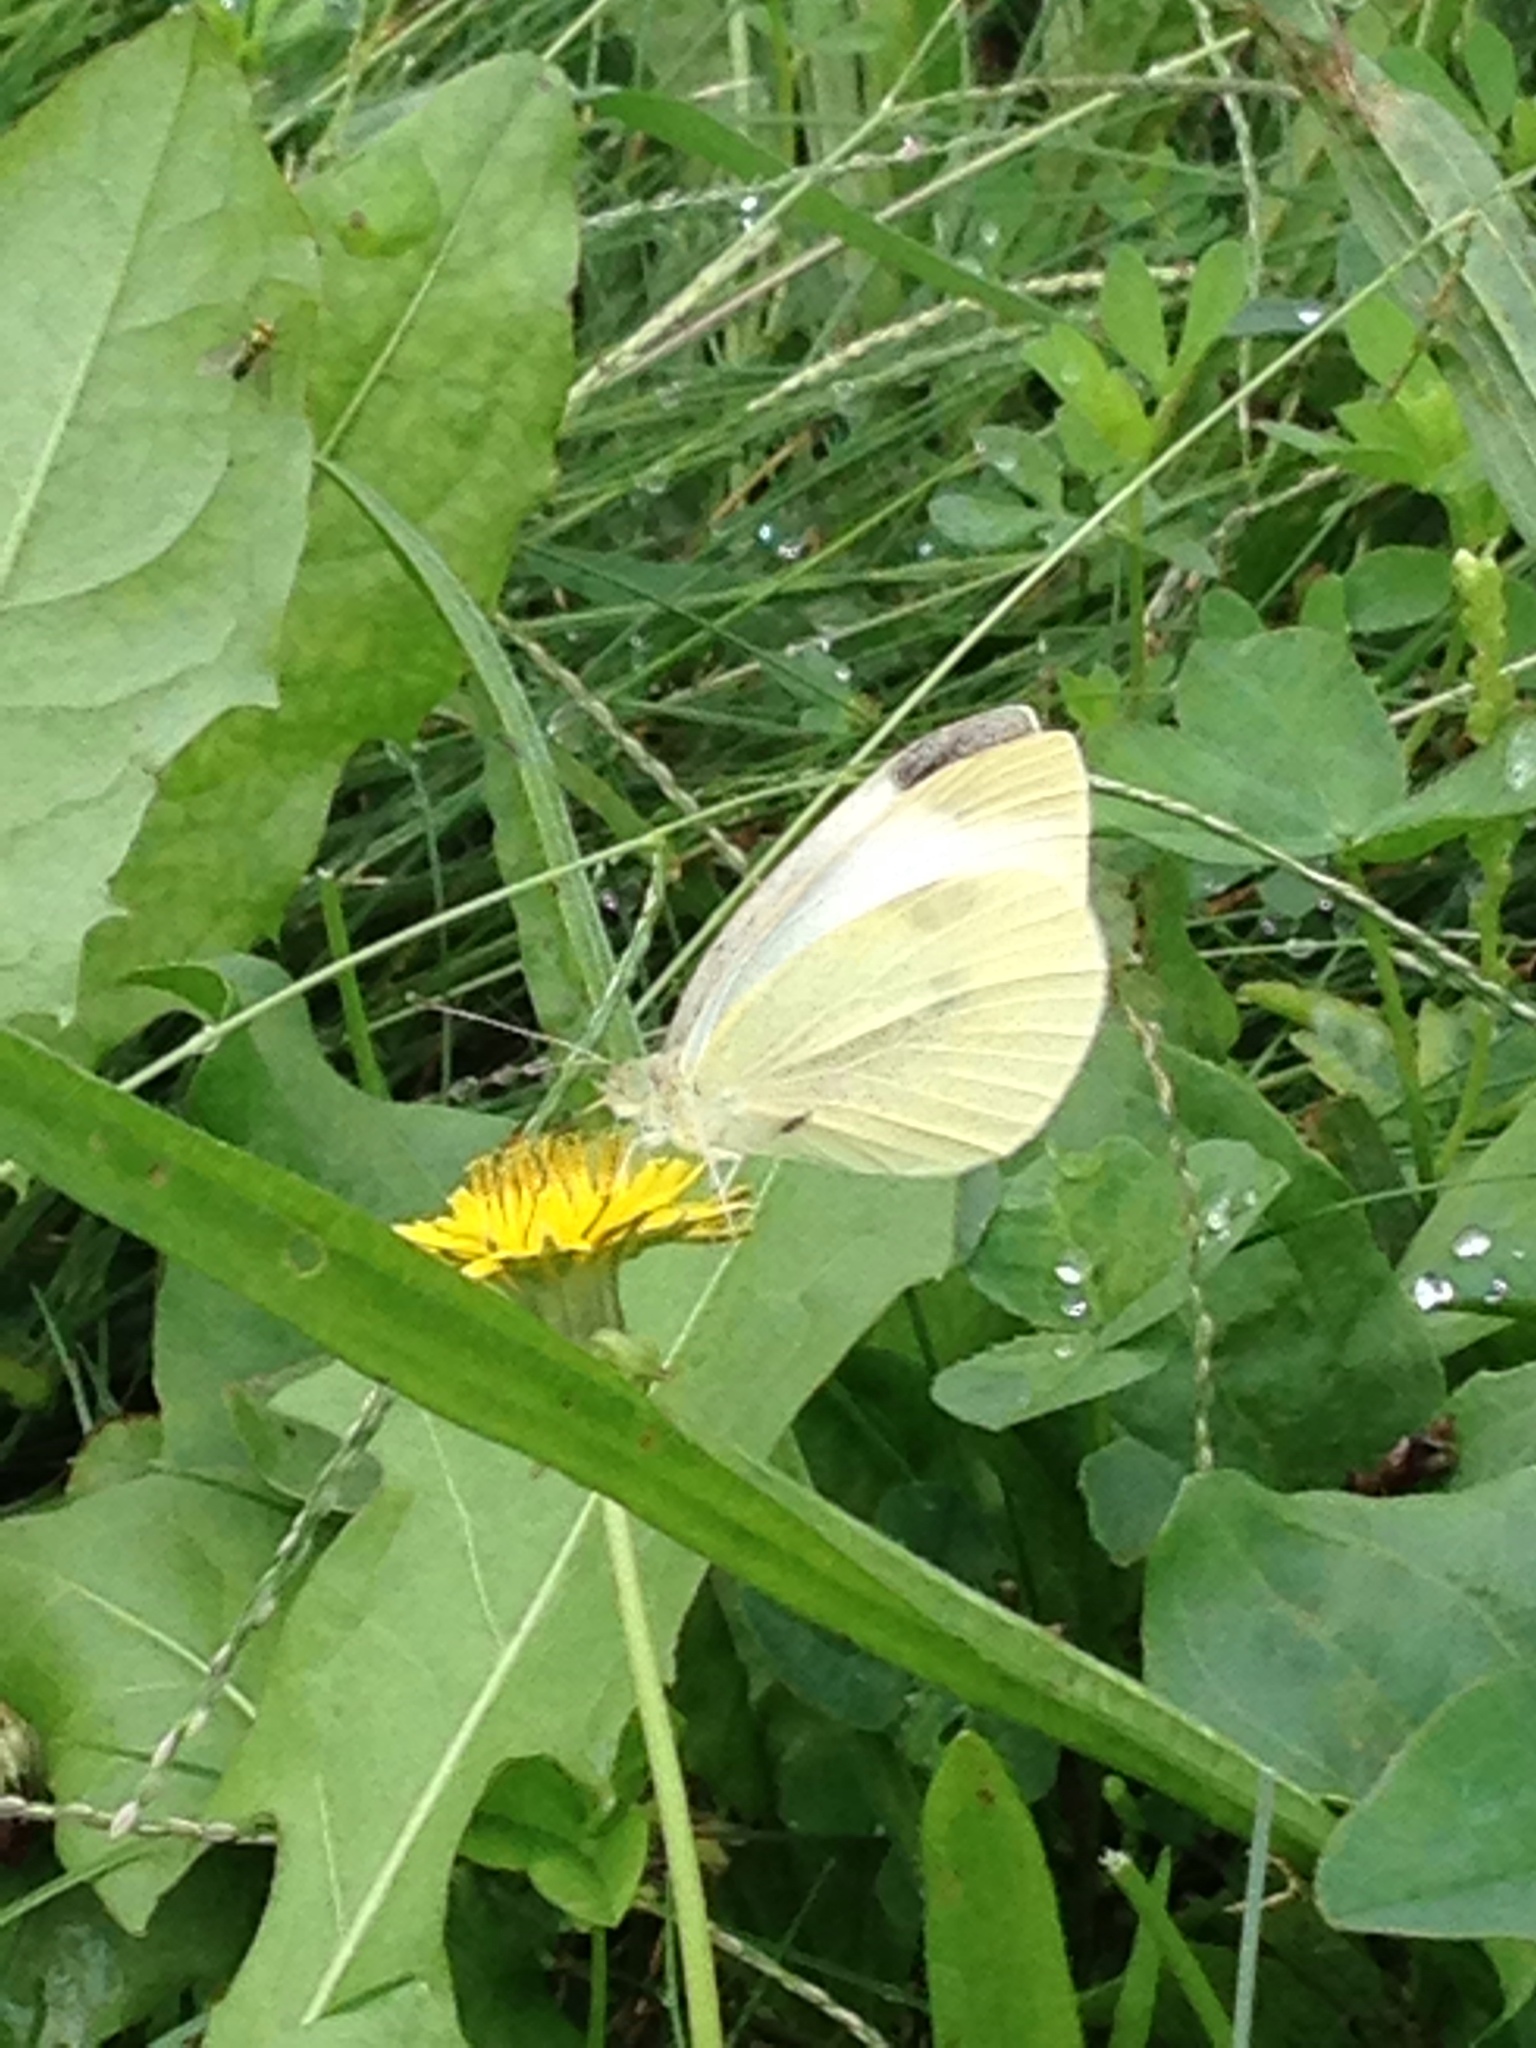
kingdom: Animalia
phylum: Arthropoda
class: Insecta
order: Lepidoptera
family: Pieridae
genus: Pieris
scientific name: Pieris rapae
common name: Small white
